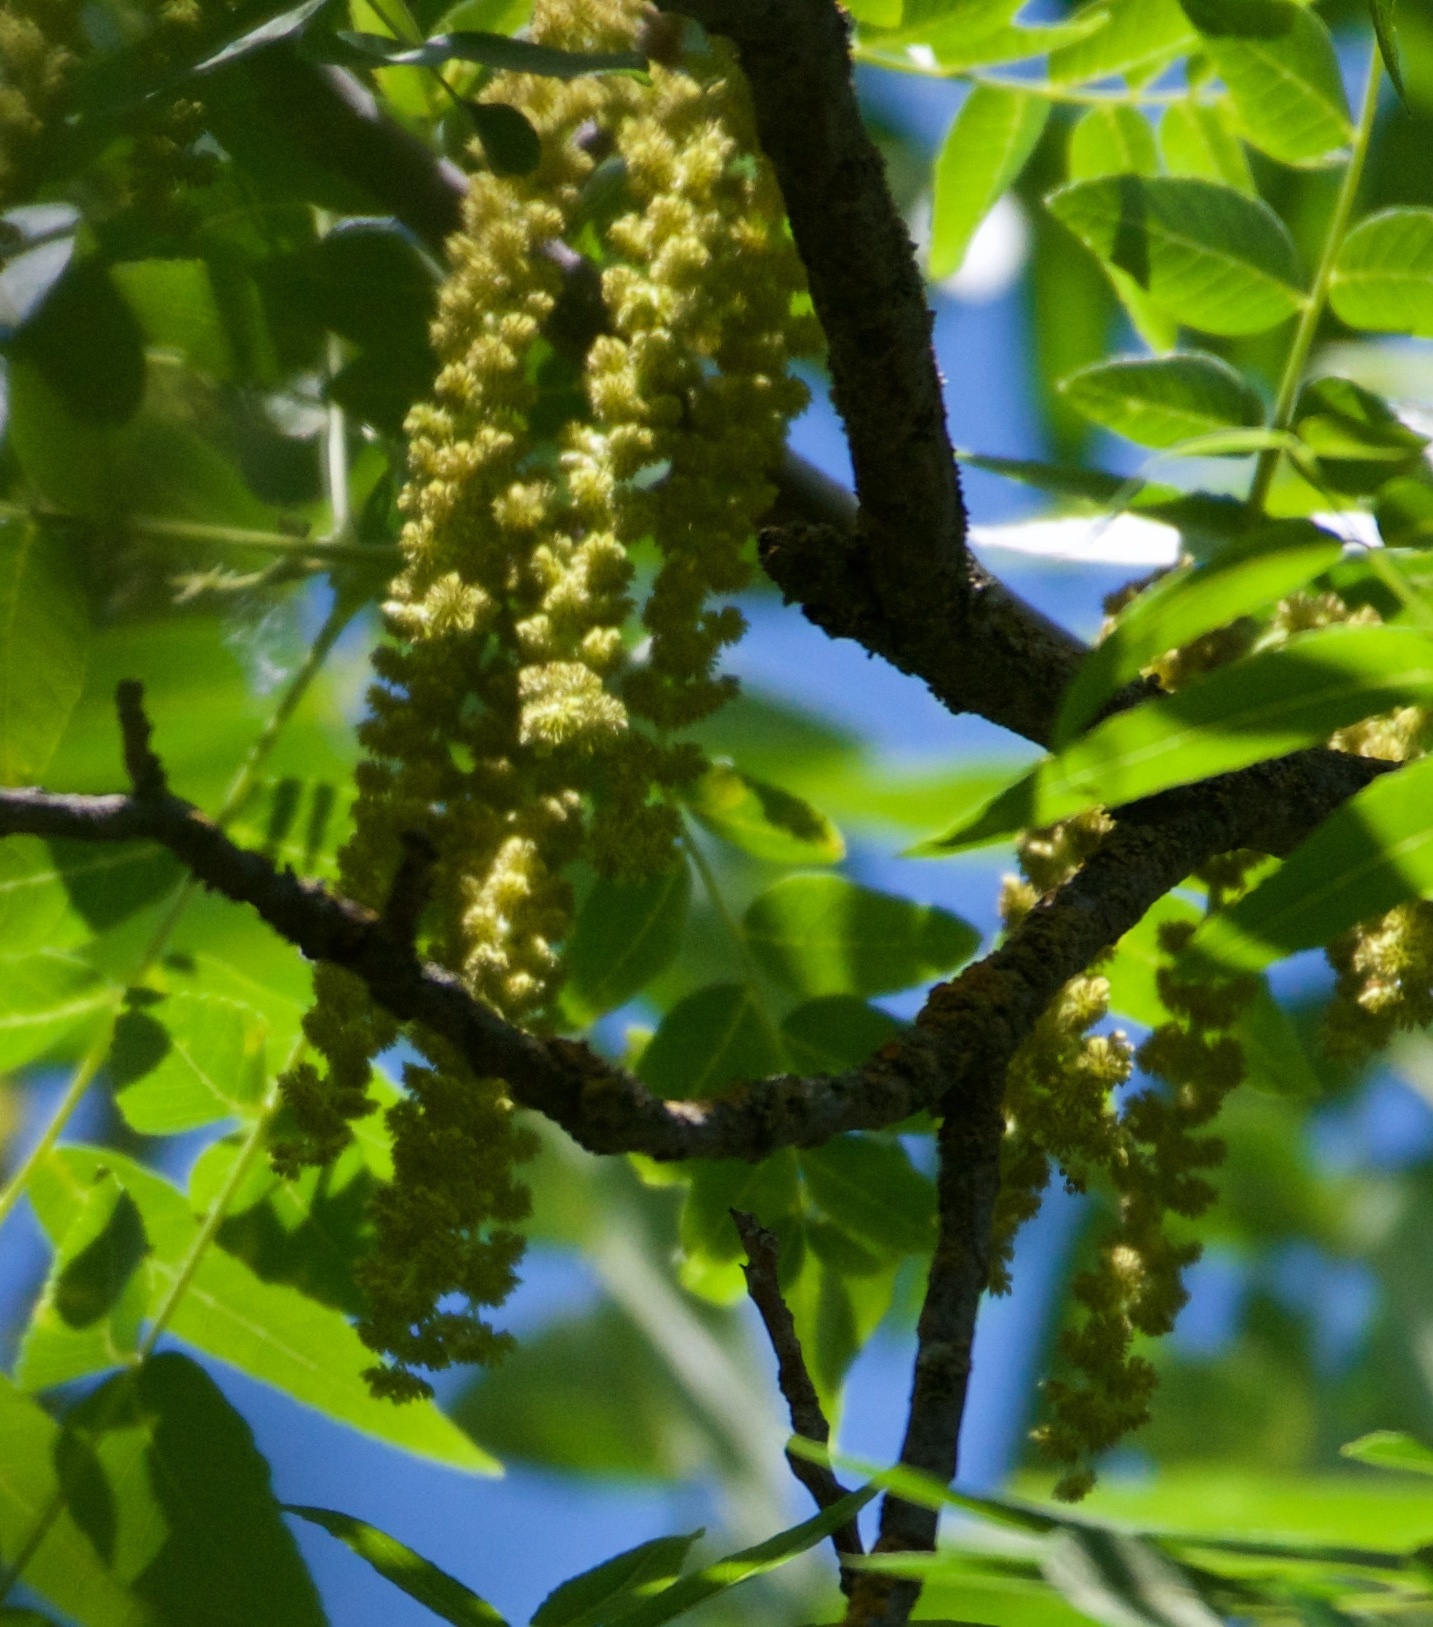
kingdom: Plantae
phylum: Tracheophyta
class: Magnoliopsida
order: Fagales
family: Juglandaceae
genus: Juglans
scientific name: Juglans hindsii
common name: Northern california black walnut
